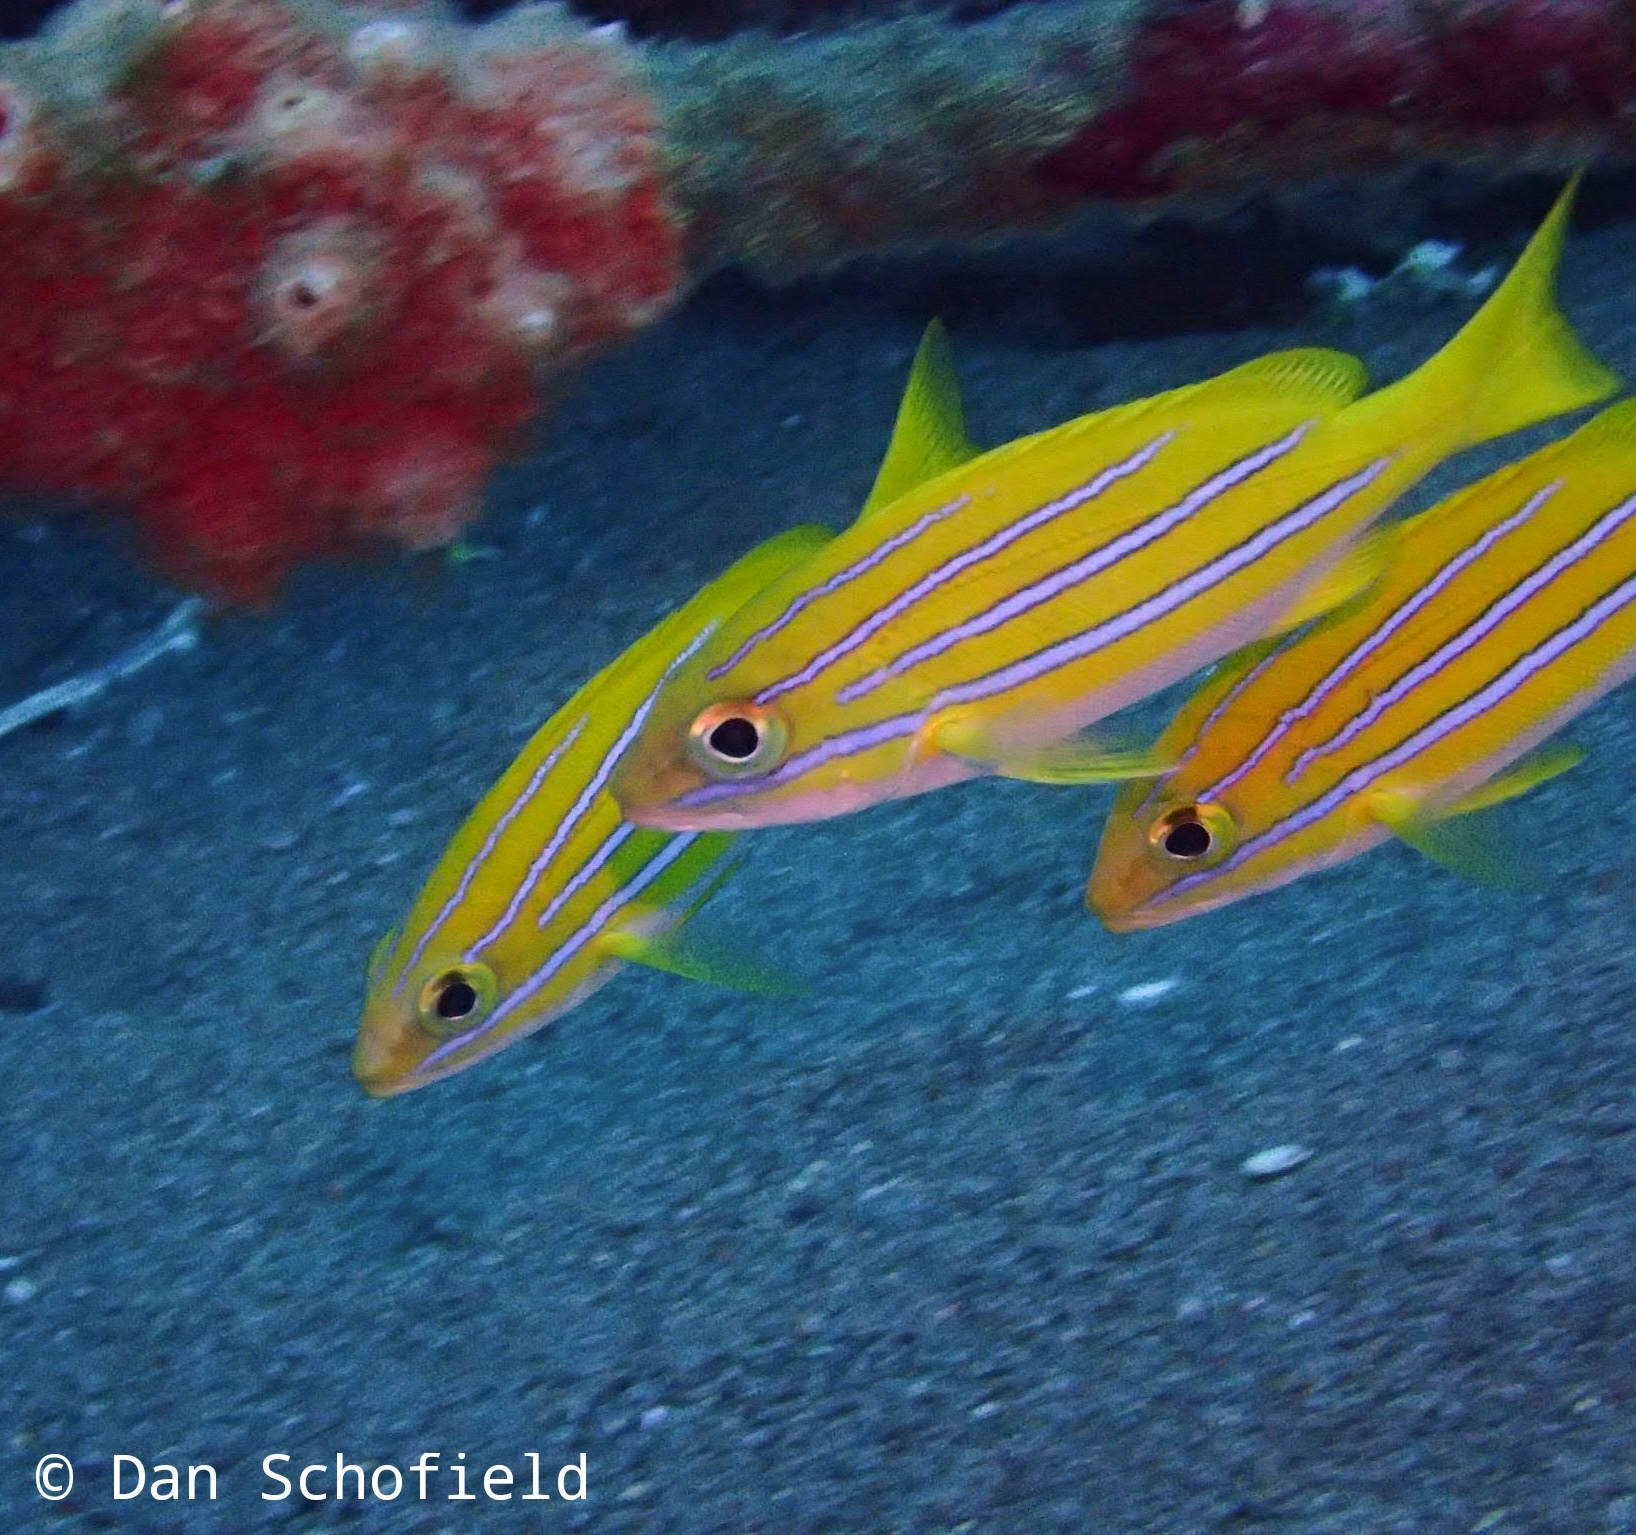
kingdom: Animalia
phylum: Chordata
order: Perciformes
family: Lutjanidae
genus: Lutjanus
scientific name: Lutjanus bengalensis
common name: Bengal snapper
